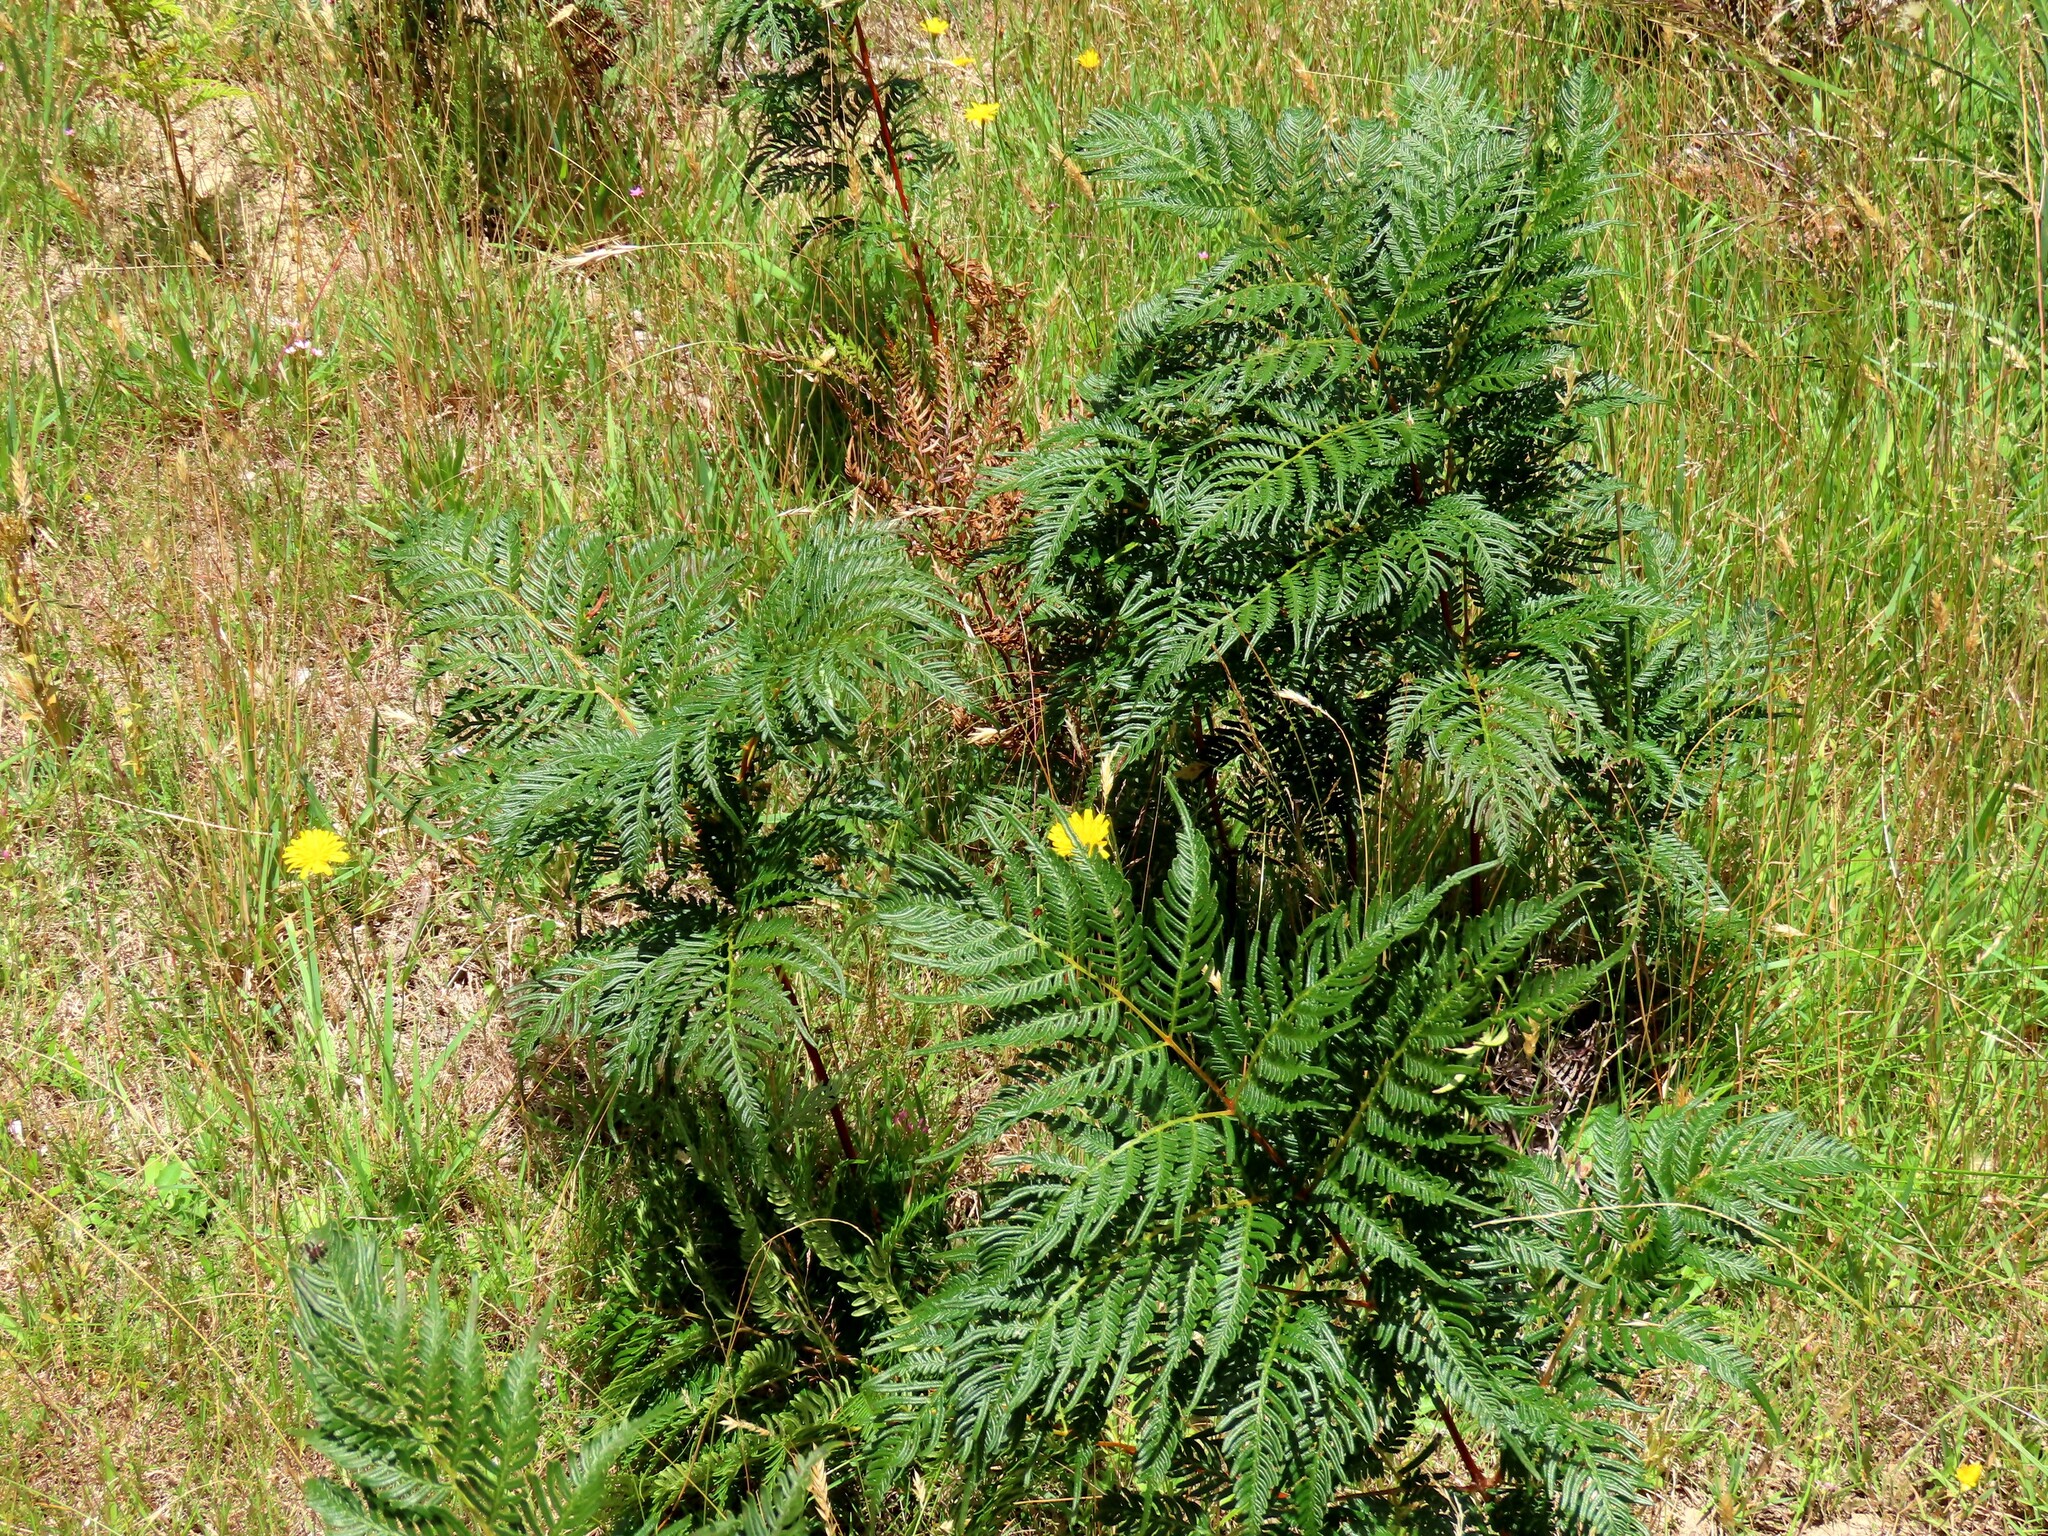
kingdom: Plantae
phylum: Tracheophyta
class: Polypodiopsida
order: Polypodiales
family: Dennstaedtiaceae
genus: Pteridium
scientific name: Pteridium esculentum
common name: Bracken fern
